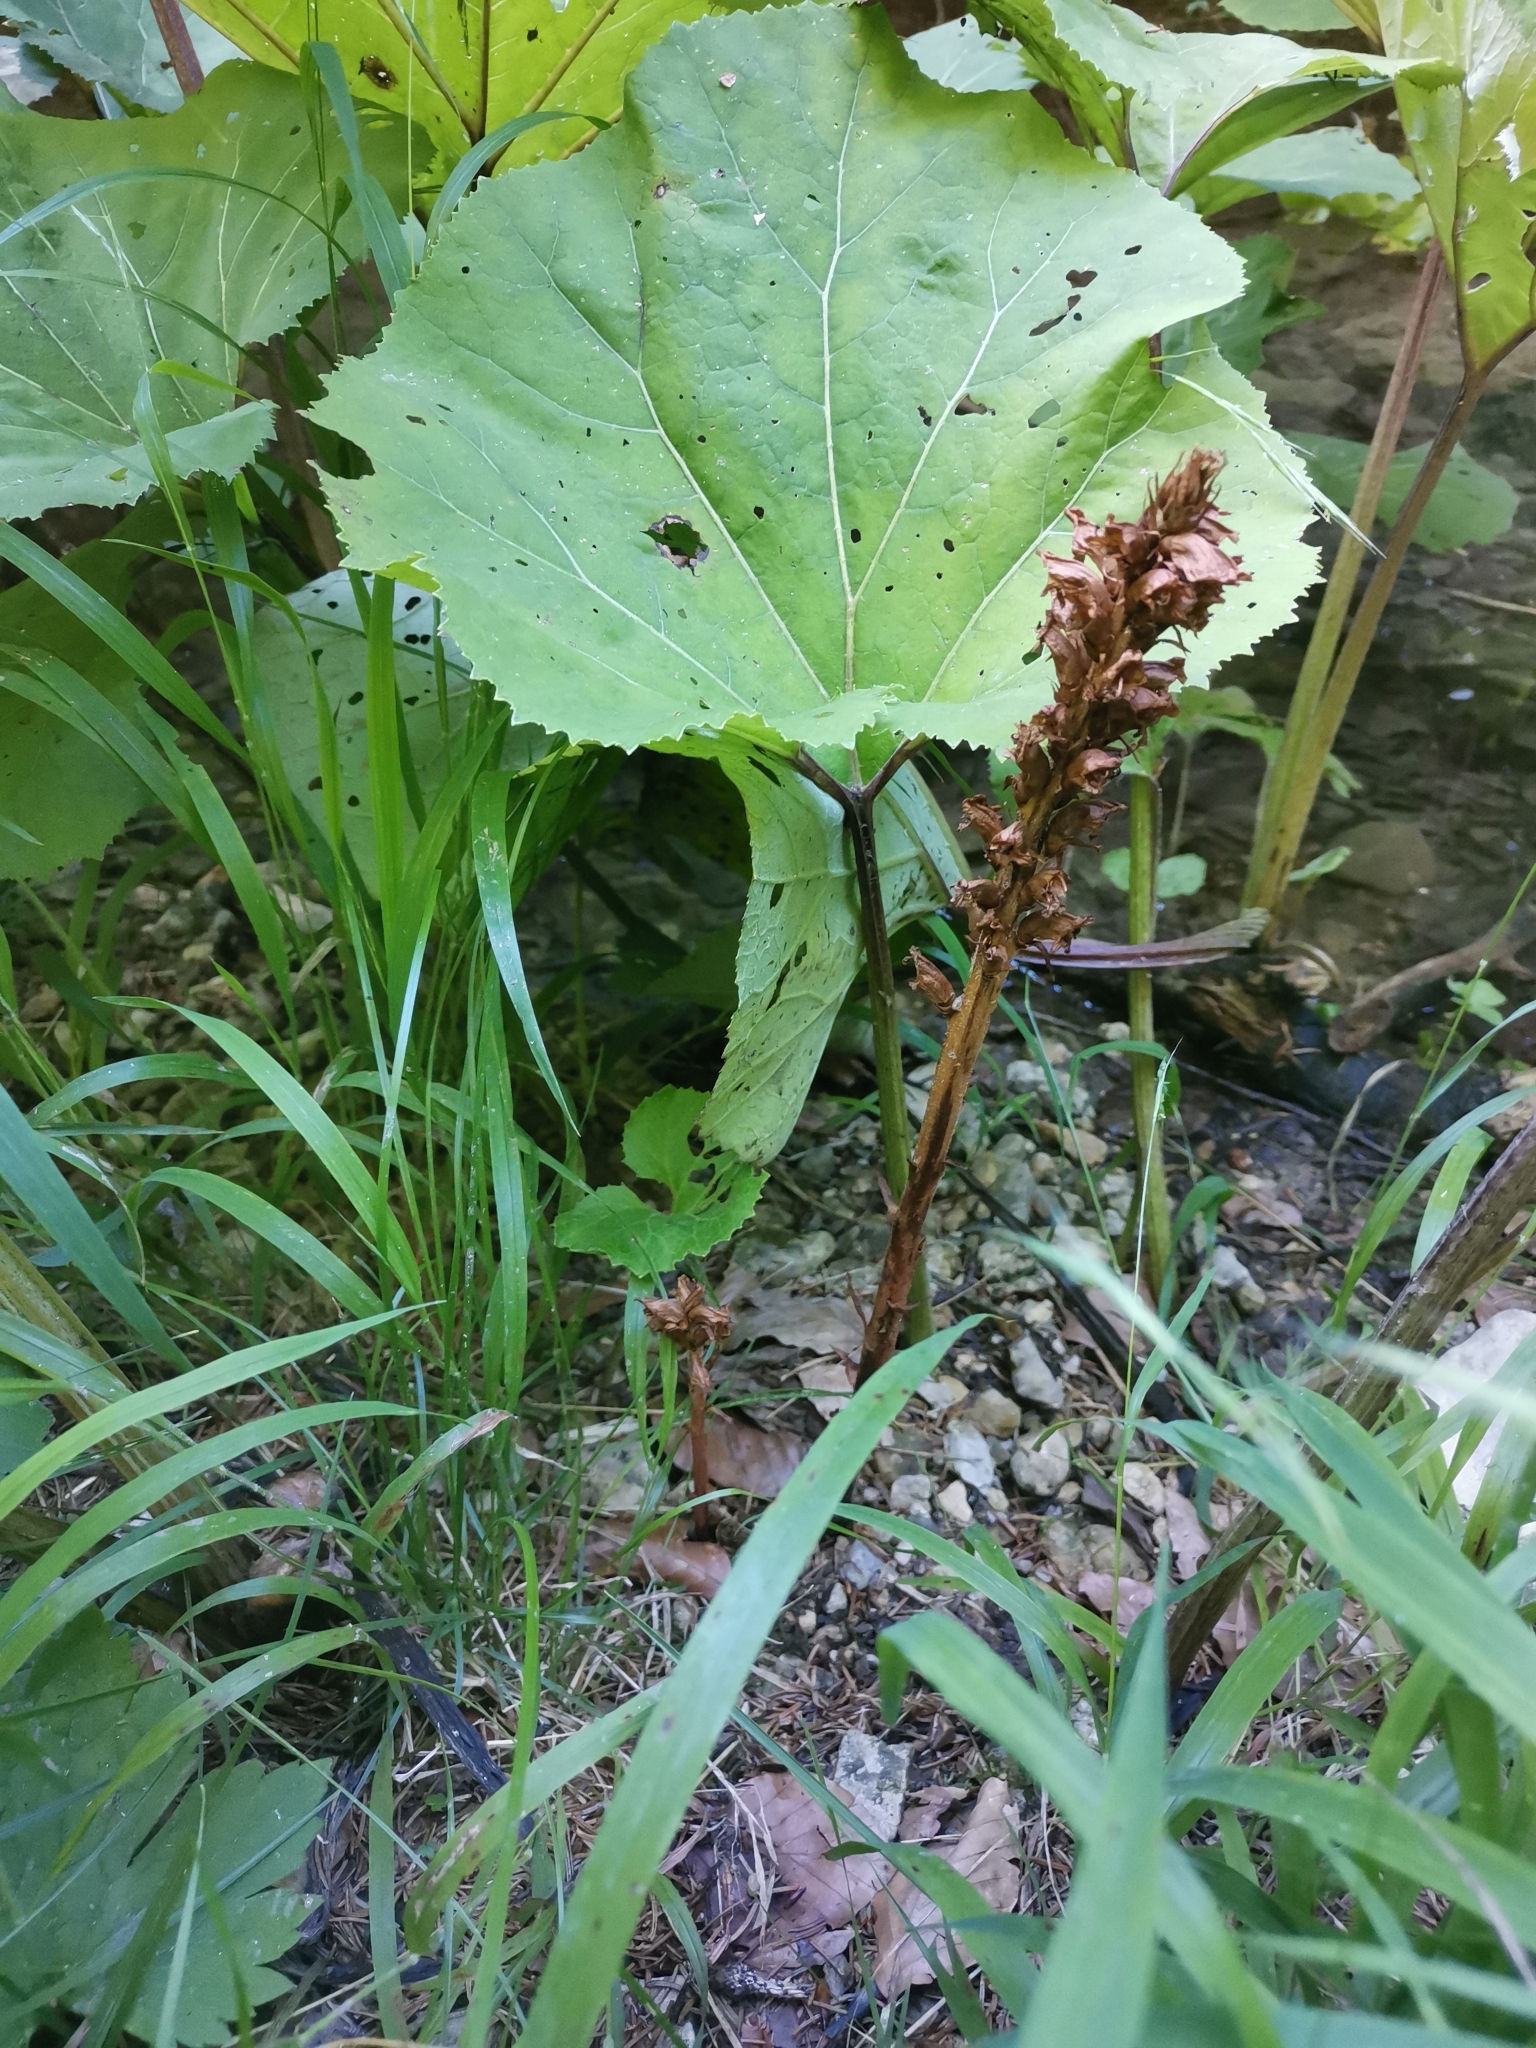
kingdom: Plantae
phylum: Tracheophyta
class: Magnoliopsida
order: Lamiales
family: Orobanchaceae
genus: Orobanche
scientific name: Orobanche flava
